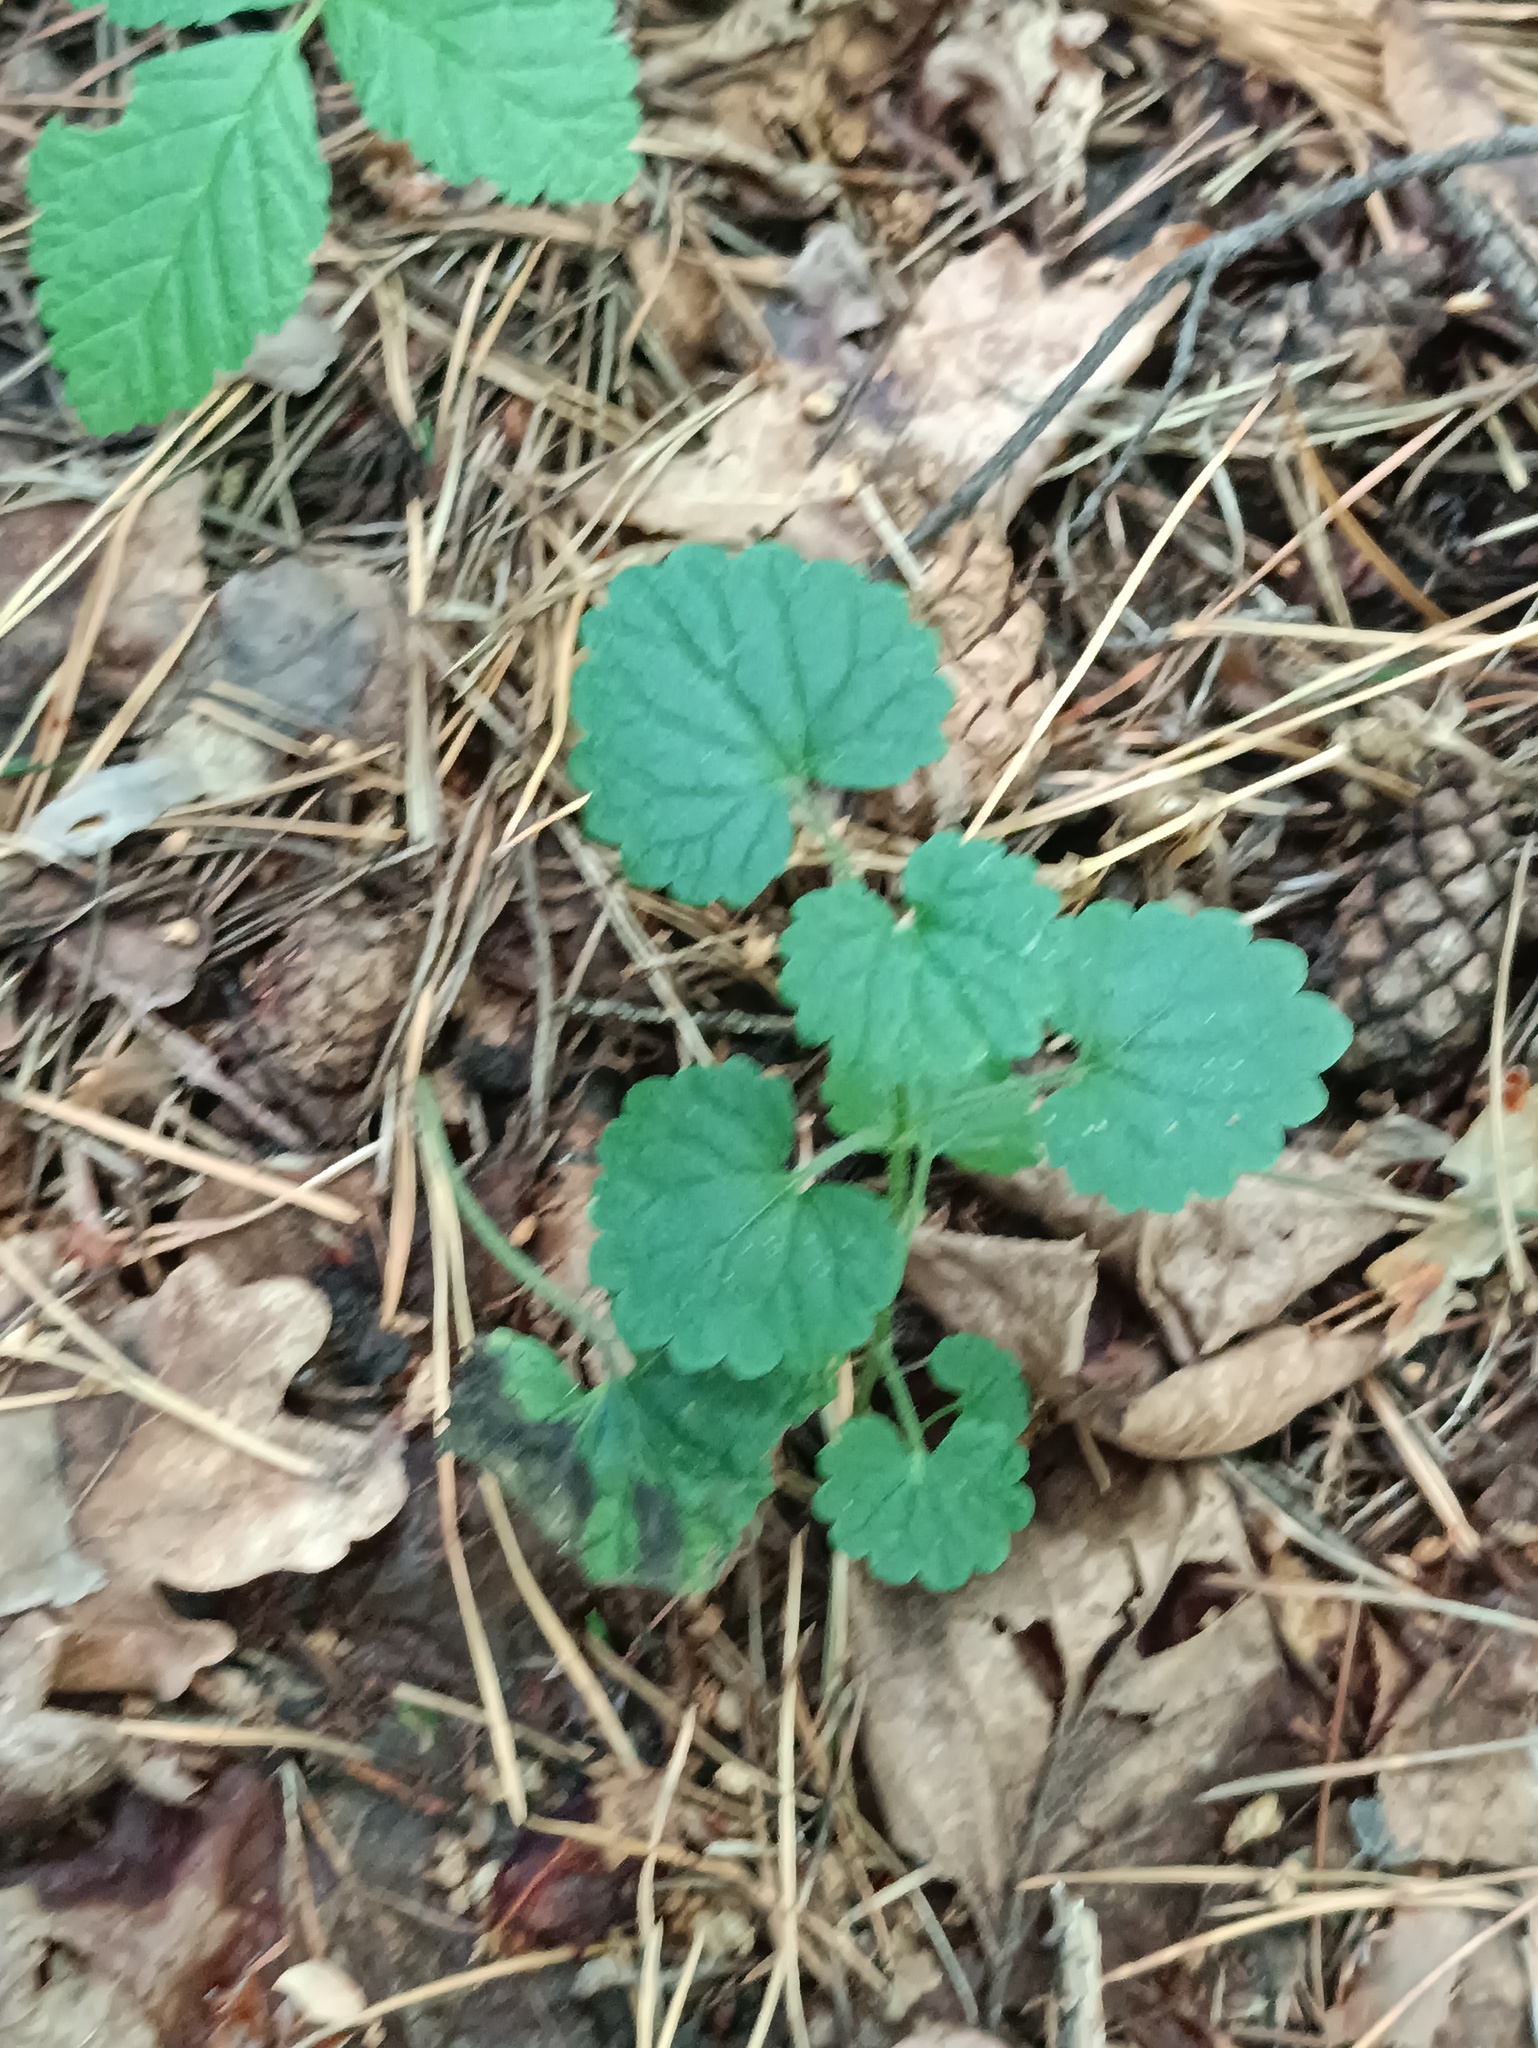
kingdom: Plantae
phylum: Tracheophyta
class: Magnoliopsida
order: Lamiales
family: Lamiaceae
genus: Glechoma
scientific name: Glechoma hederacea
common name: Ground ivy
